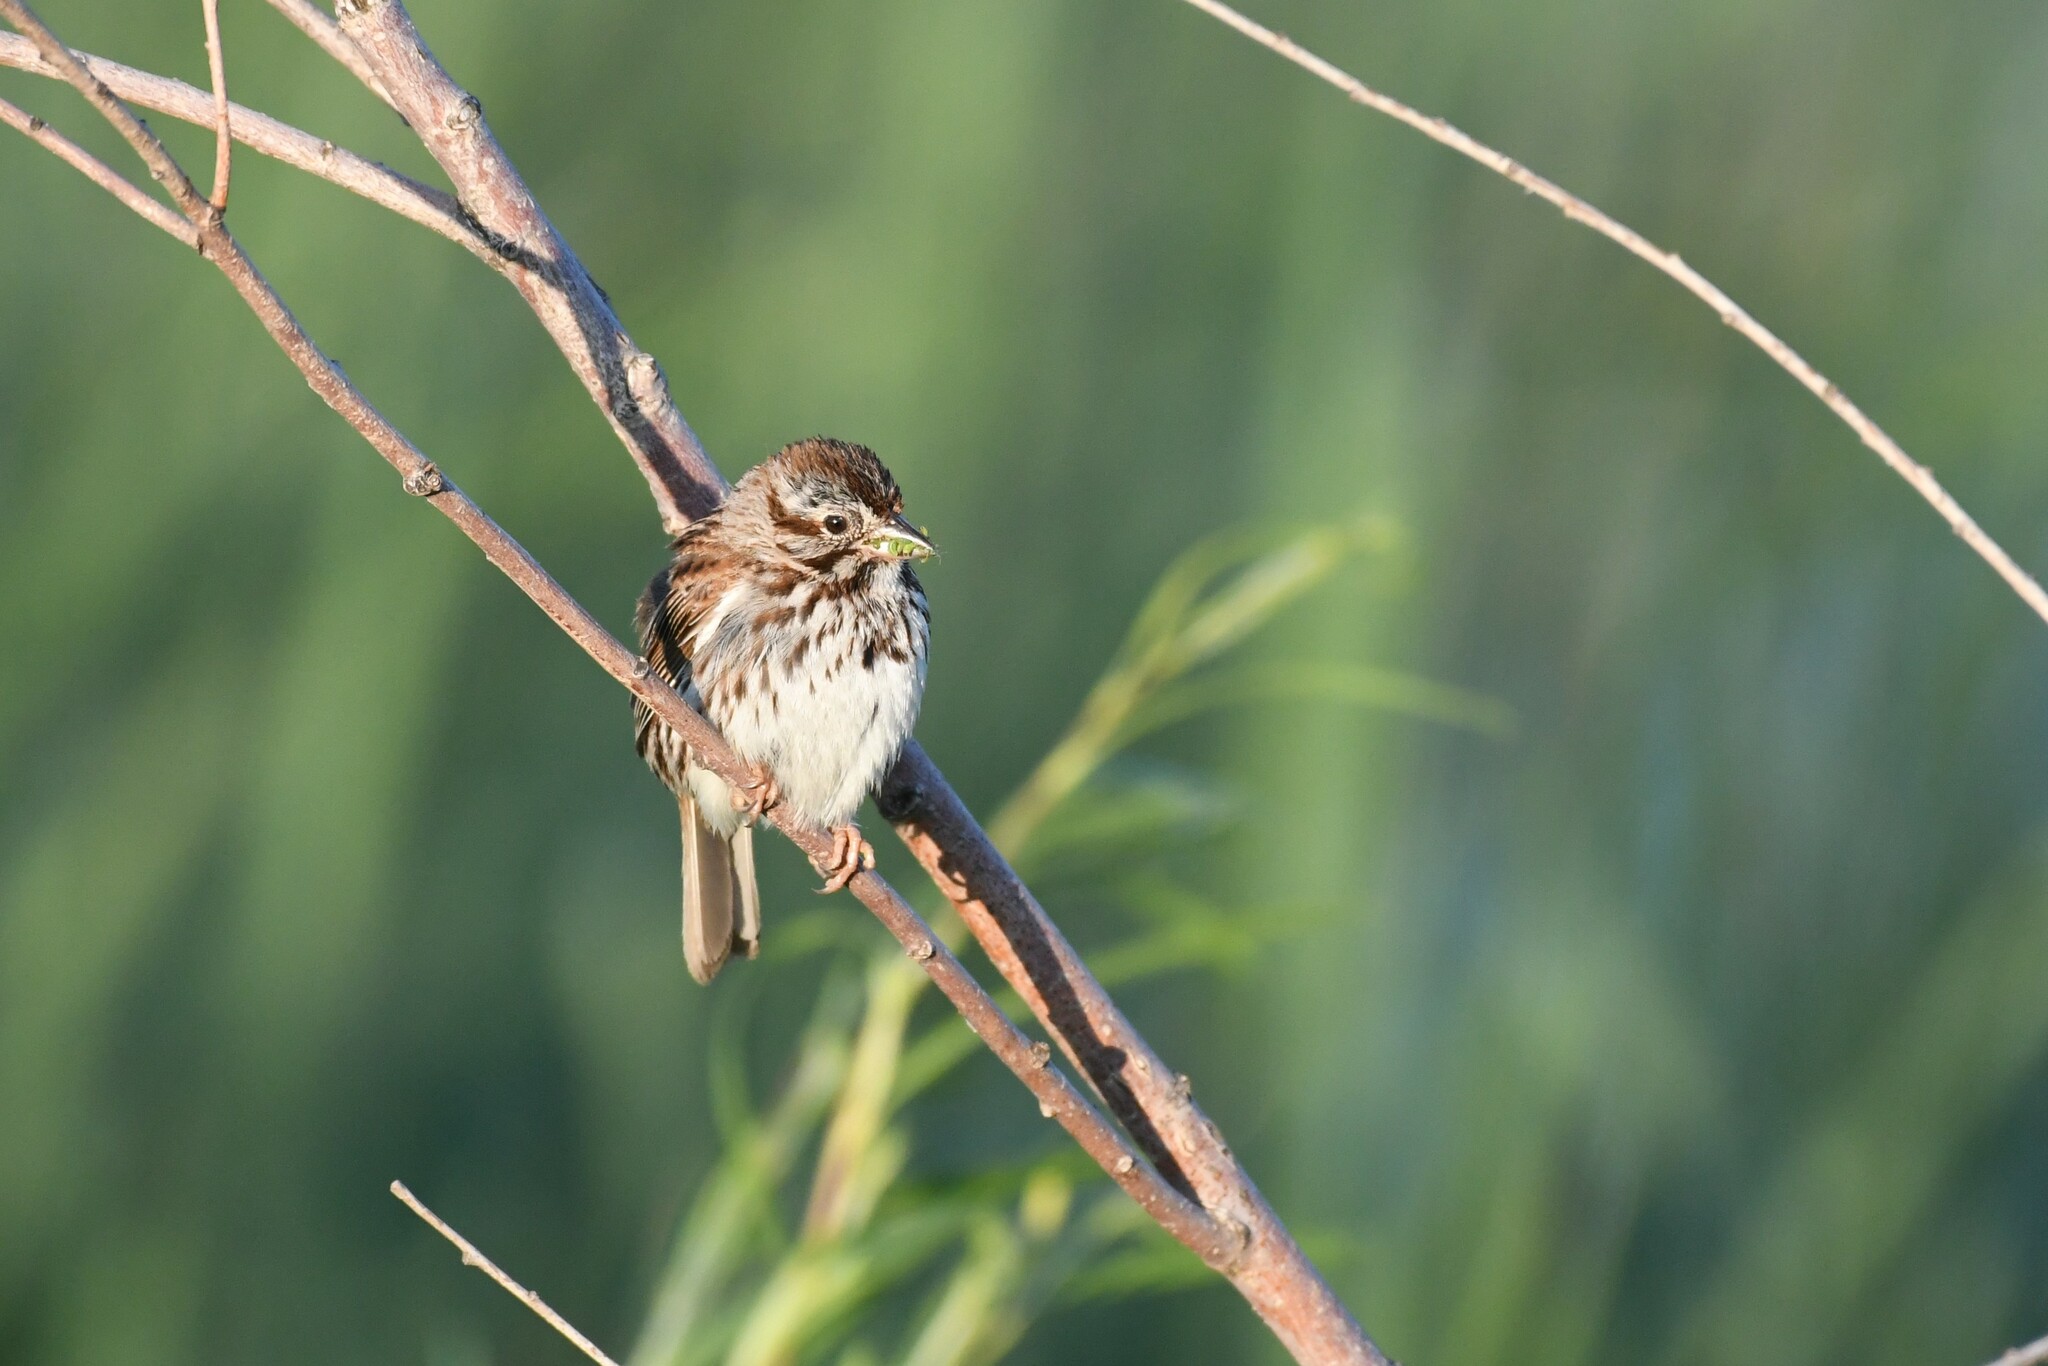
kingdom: Animalia
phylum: Chordata
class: Aves
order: Passeriformes
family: Passerellidae
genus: Melospiza
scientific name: Melospiza melodia
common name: Song sparrow
